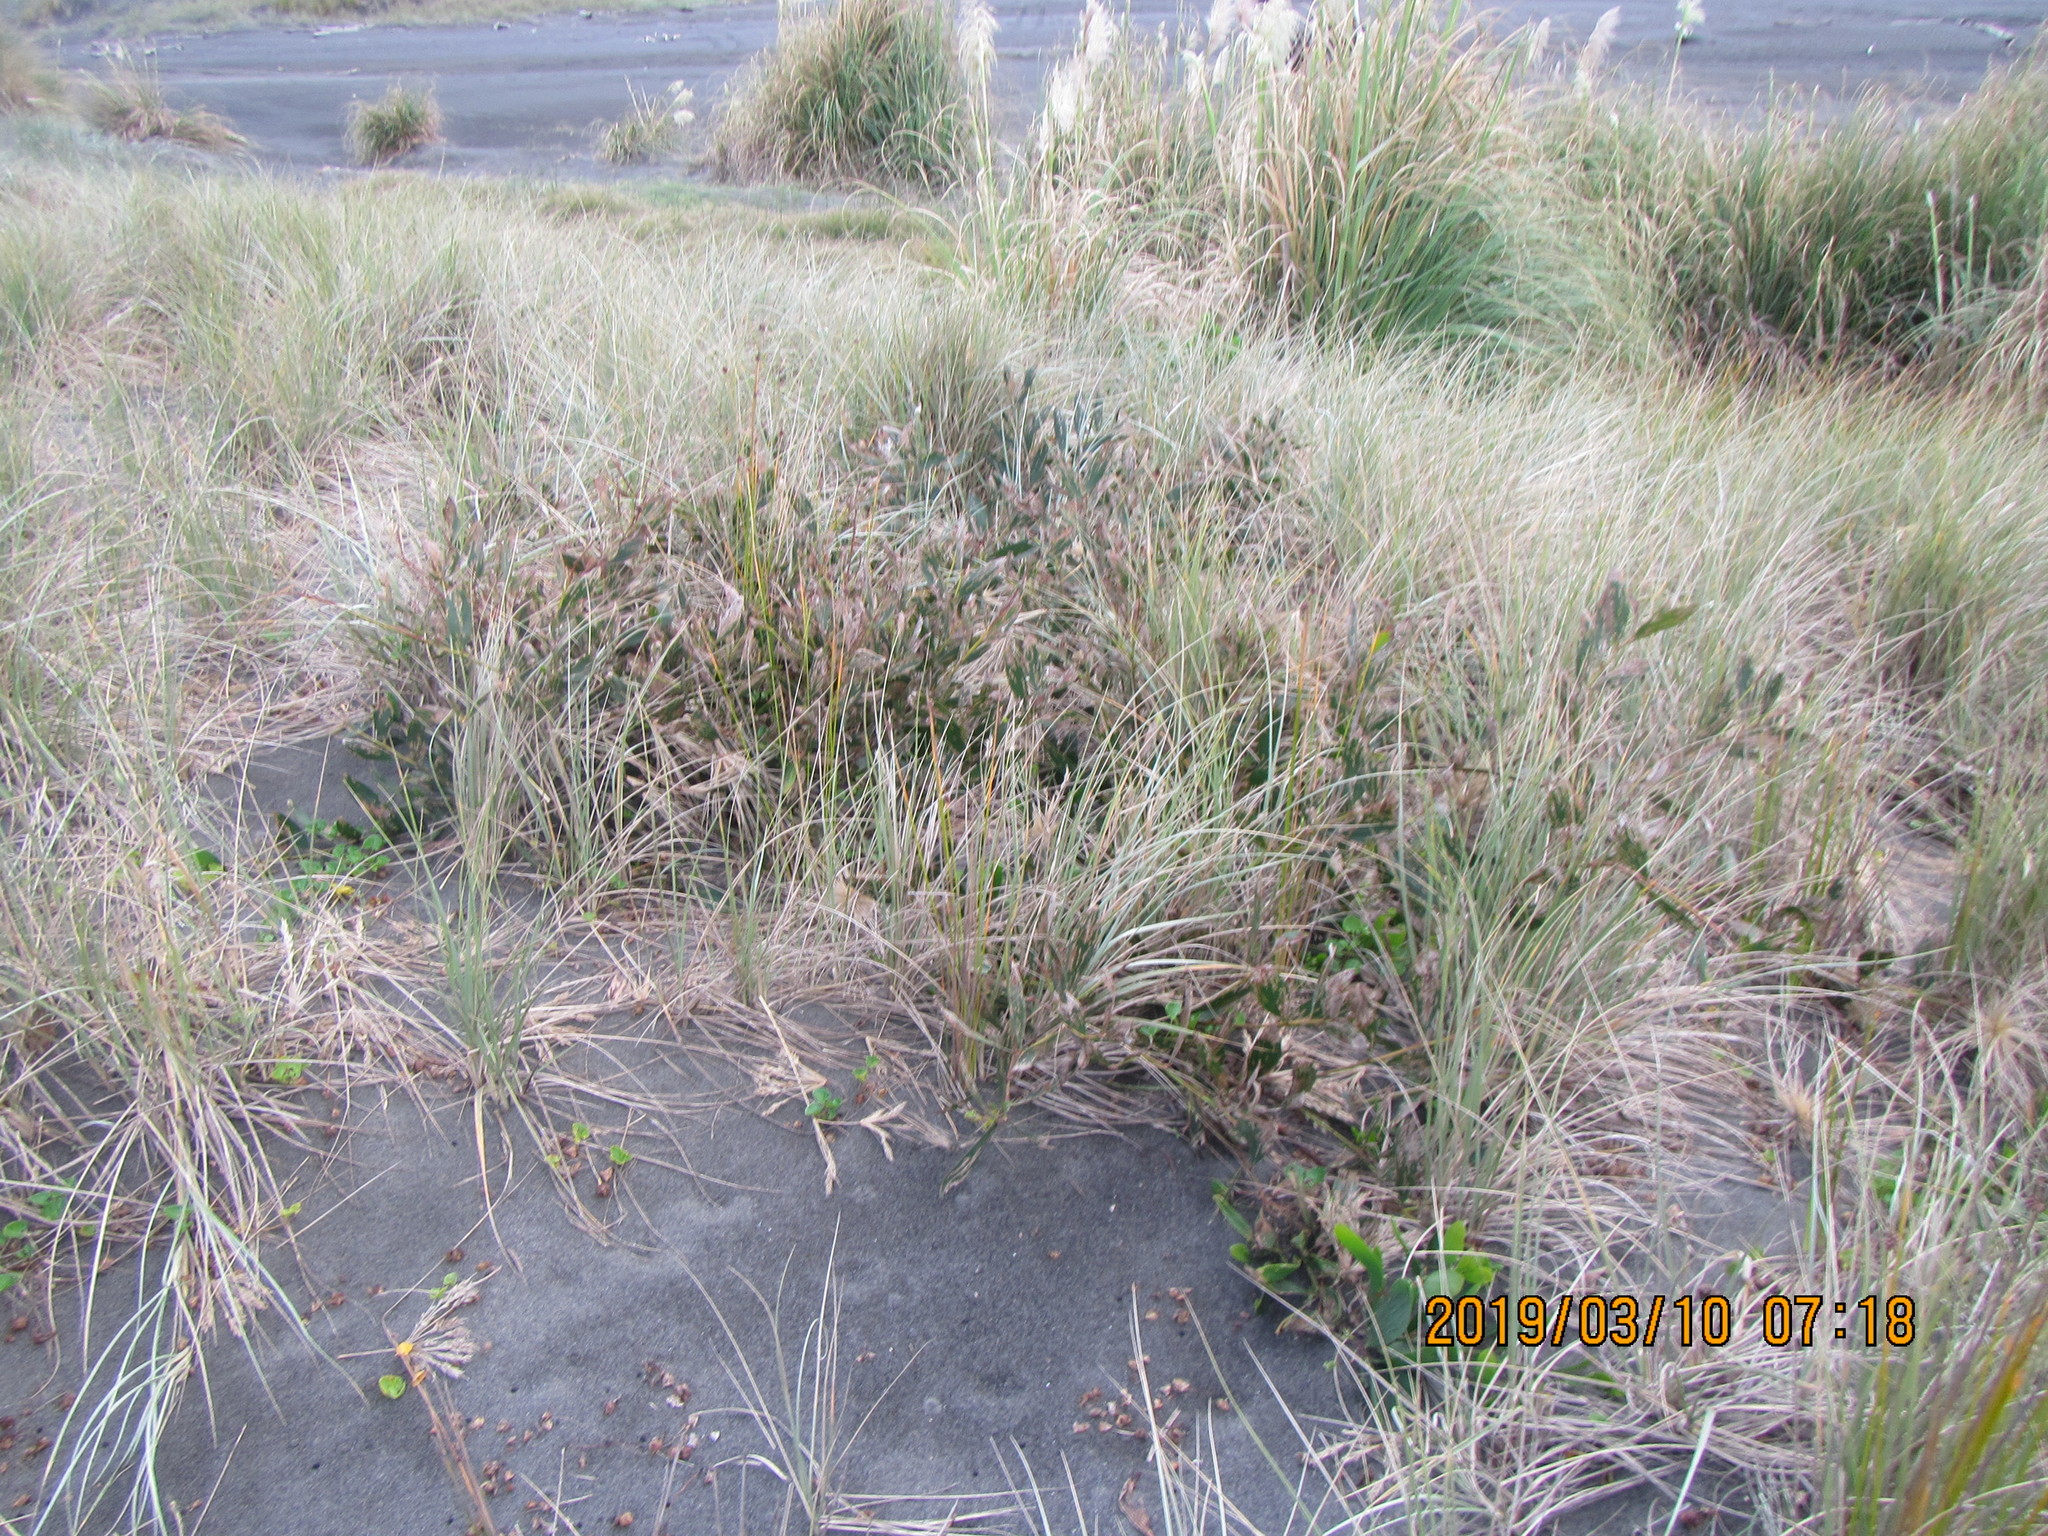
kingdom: Plantae
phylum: Tracheophyta
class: Magnoliopsida
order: Fabales
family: Fabaceae
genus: Acacia
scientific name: Acacia longifolia
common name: Sydney golden wattle
